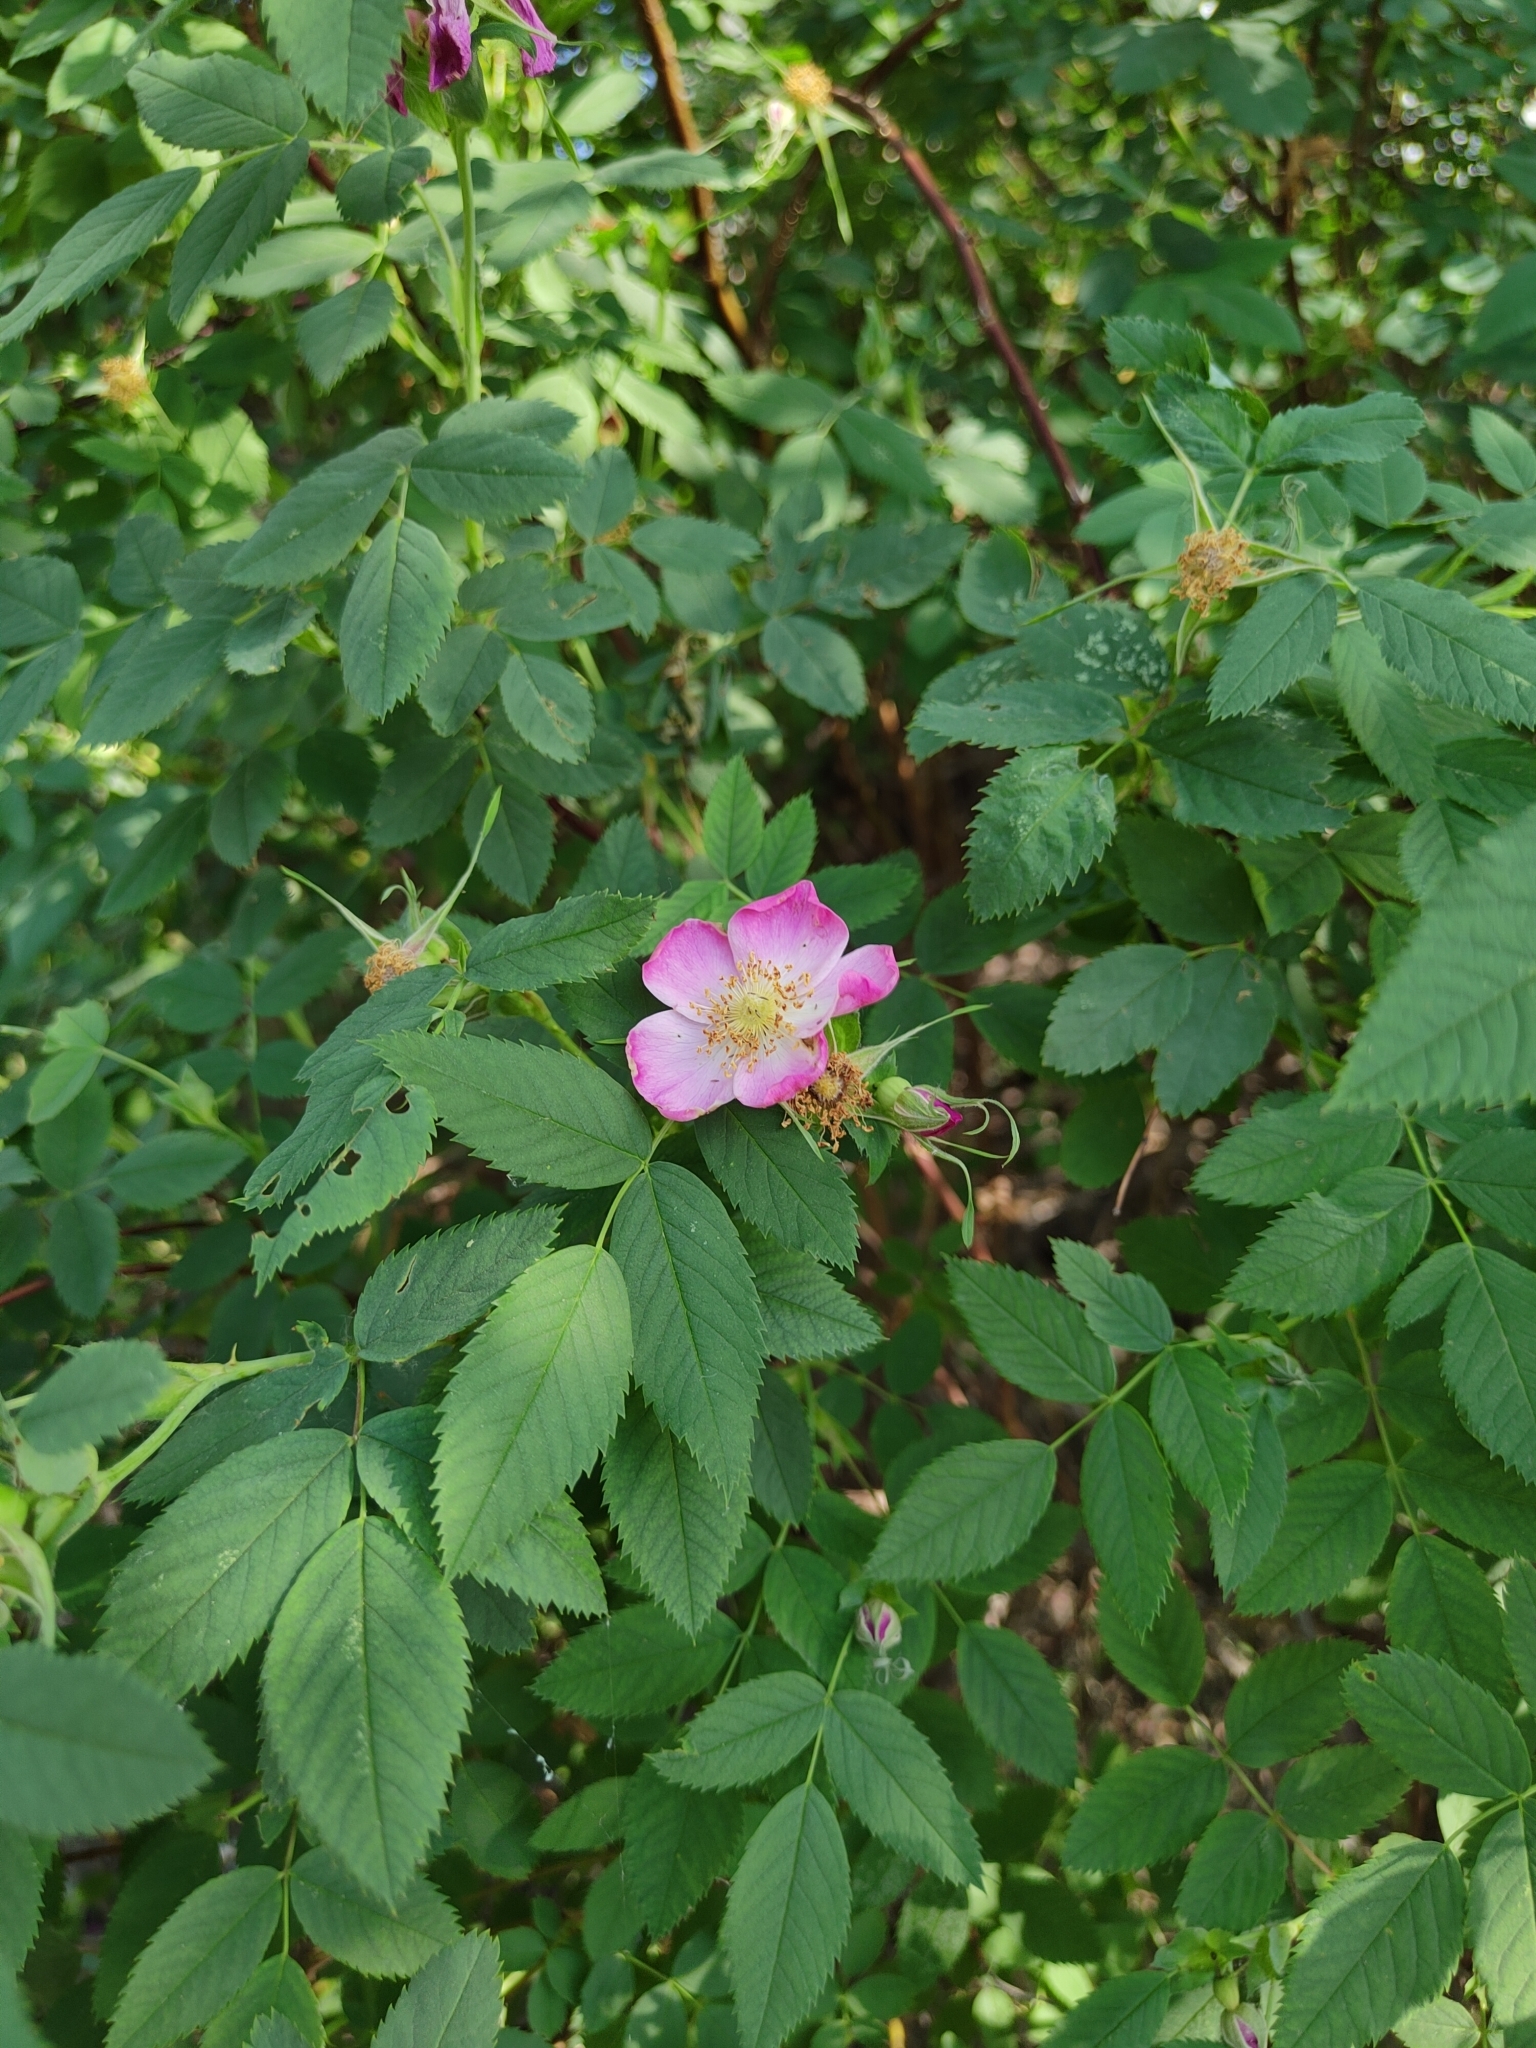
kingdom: Plantae
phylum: Tracheophyta
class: Magnoliopsida
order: Rosales
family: Rosaceae
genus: Rosa
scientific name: Rosa glabrifolia
